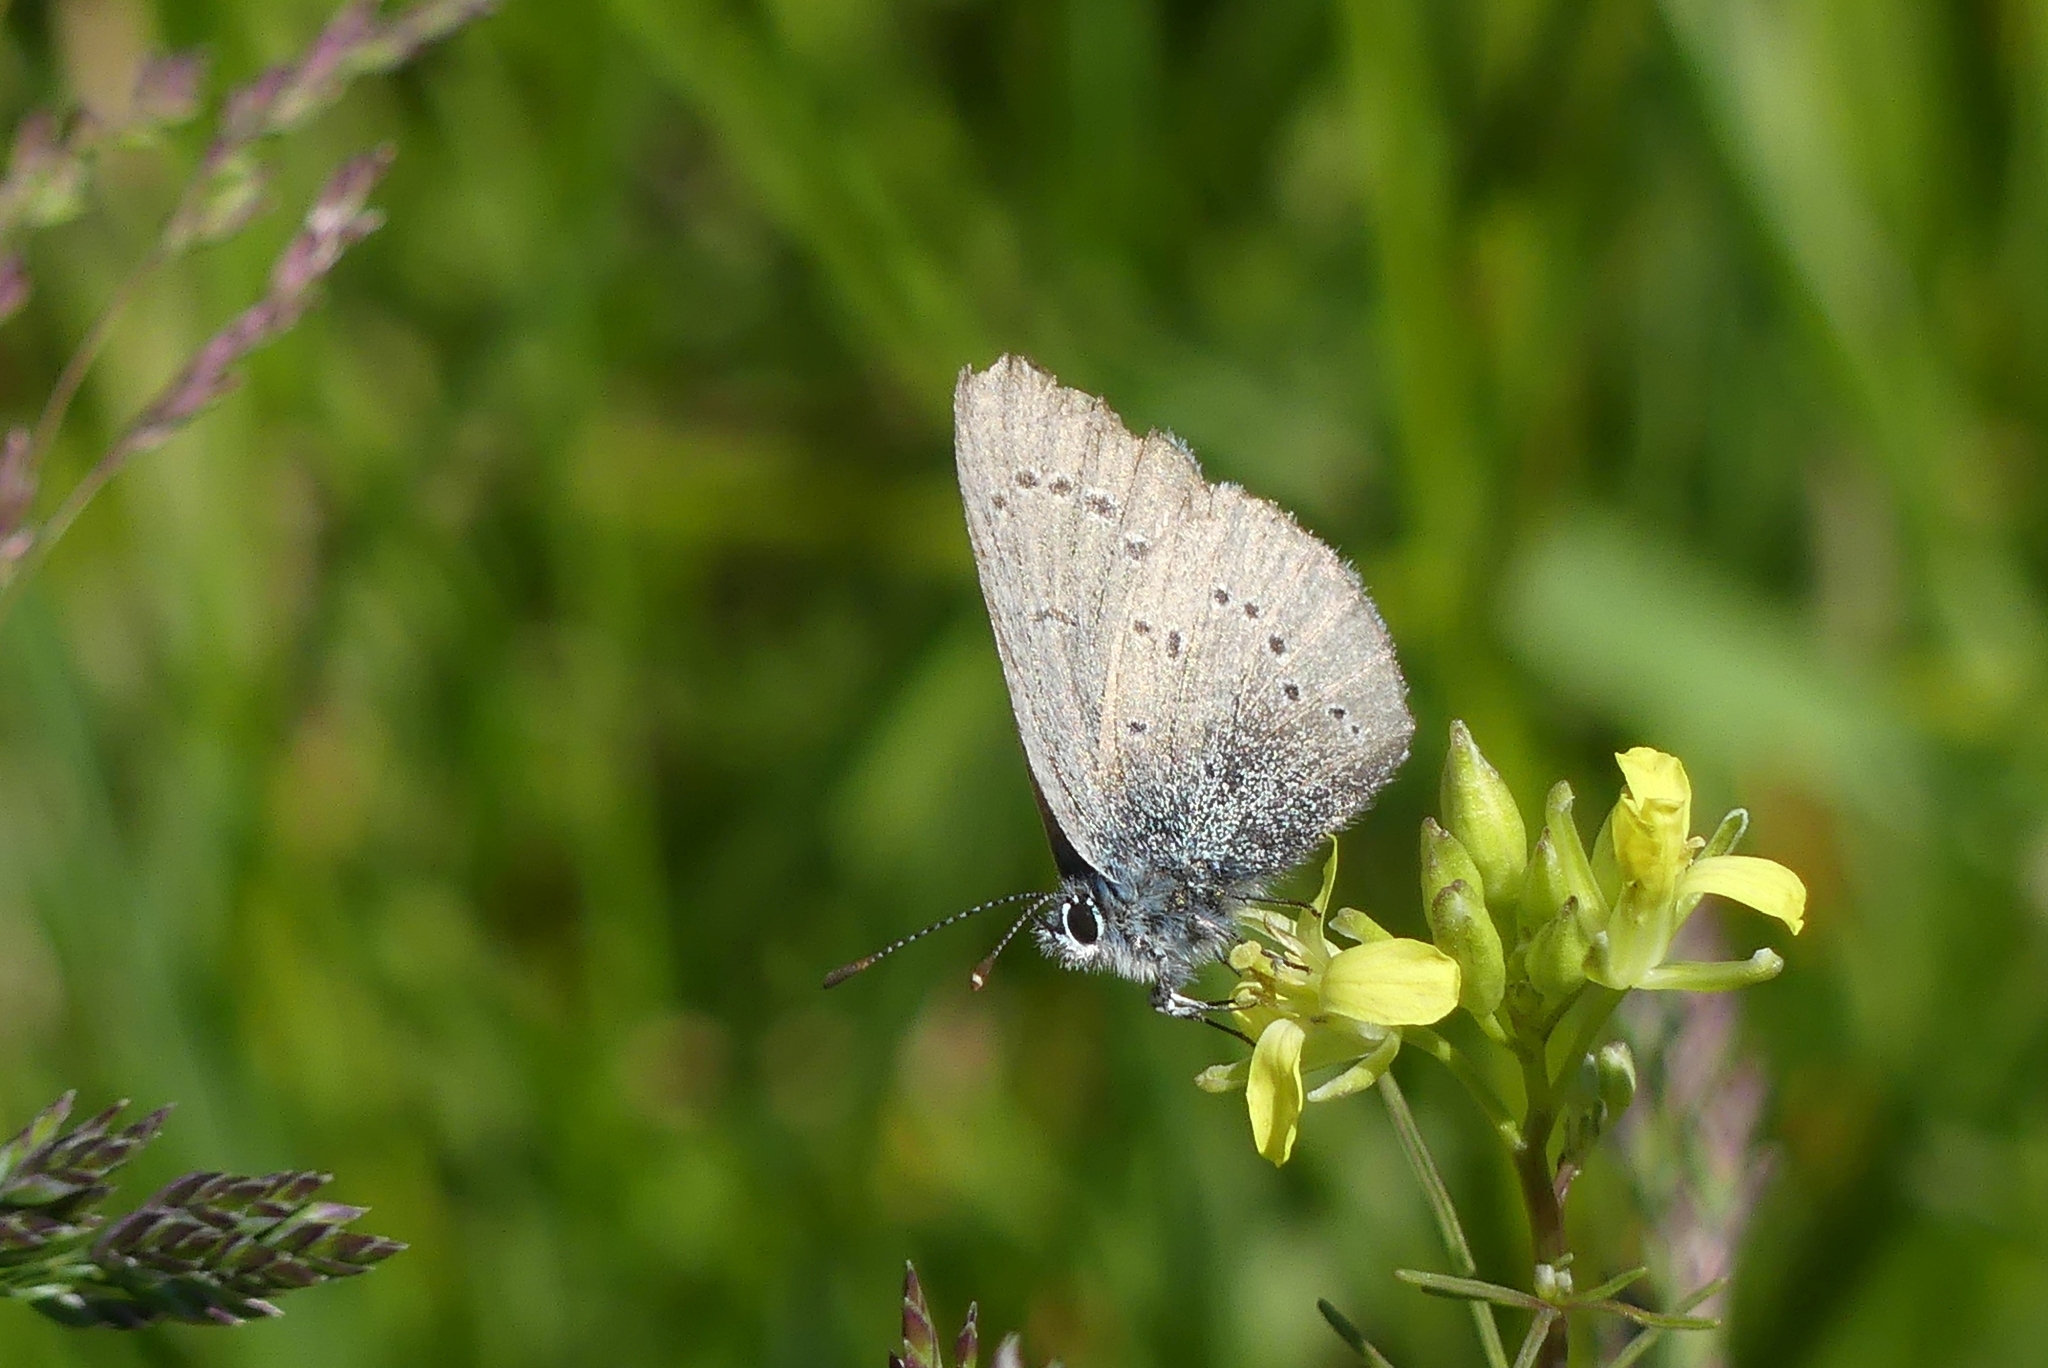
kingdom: Animalia
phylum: Arthropoda
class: Insecta
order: Lepidoptera
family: Lycaenidae
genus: Glaucopsyche
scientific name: Glaucopsyche lygdamus
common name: Silvery blue
